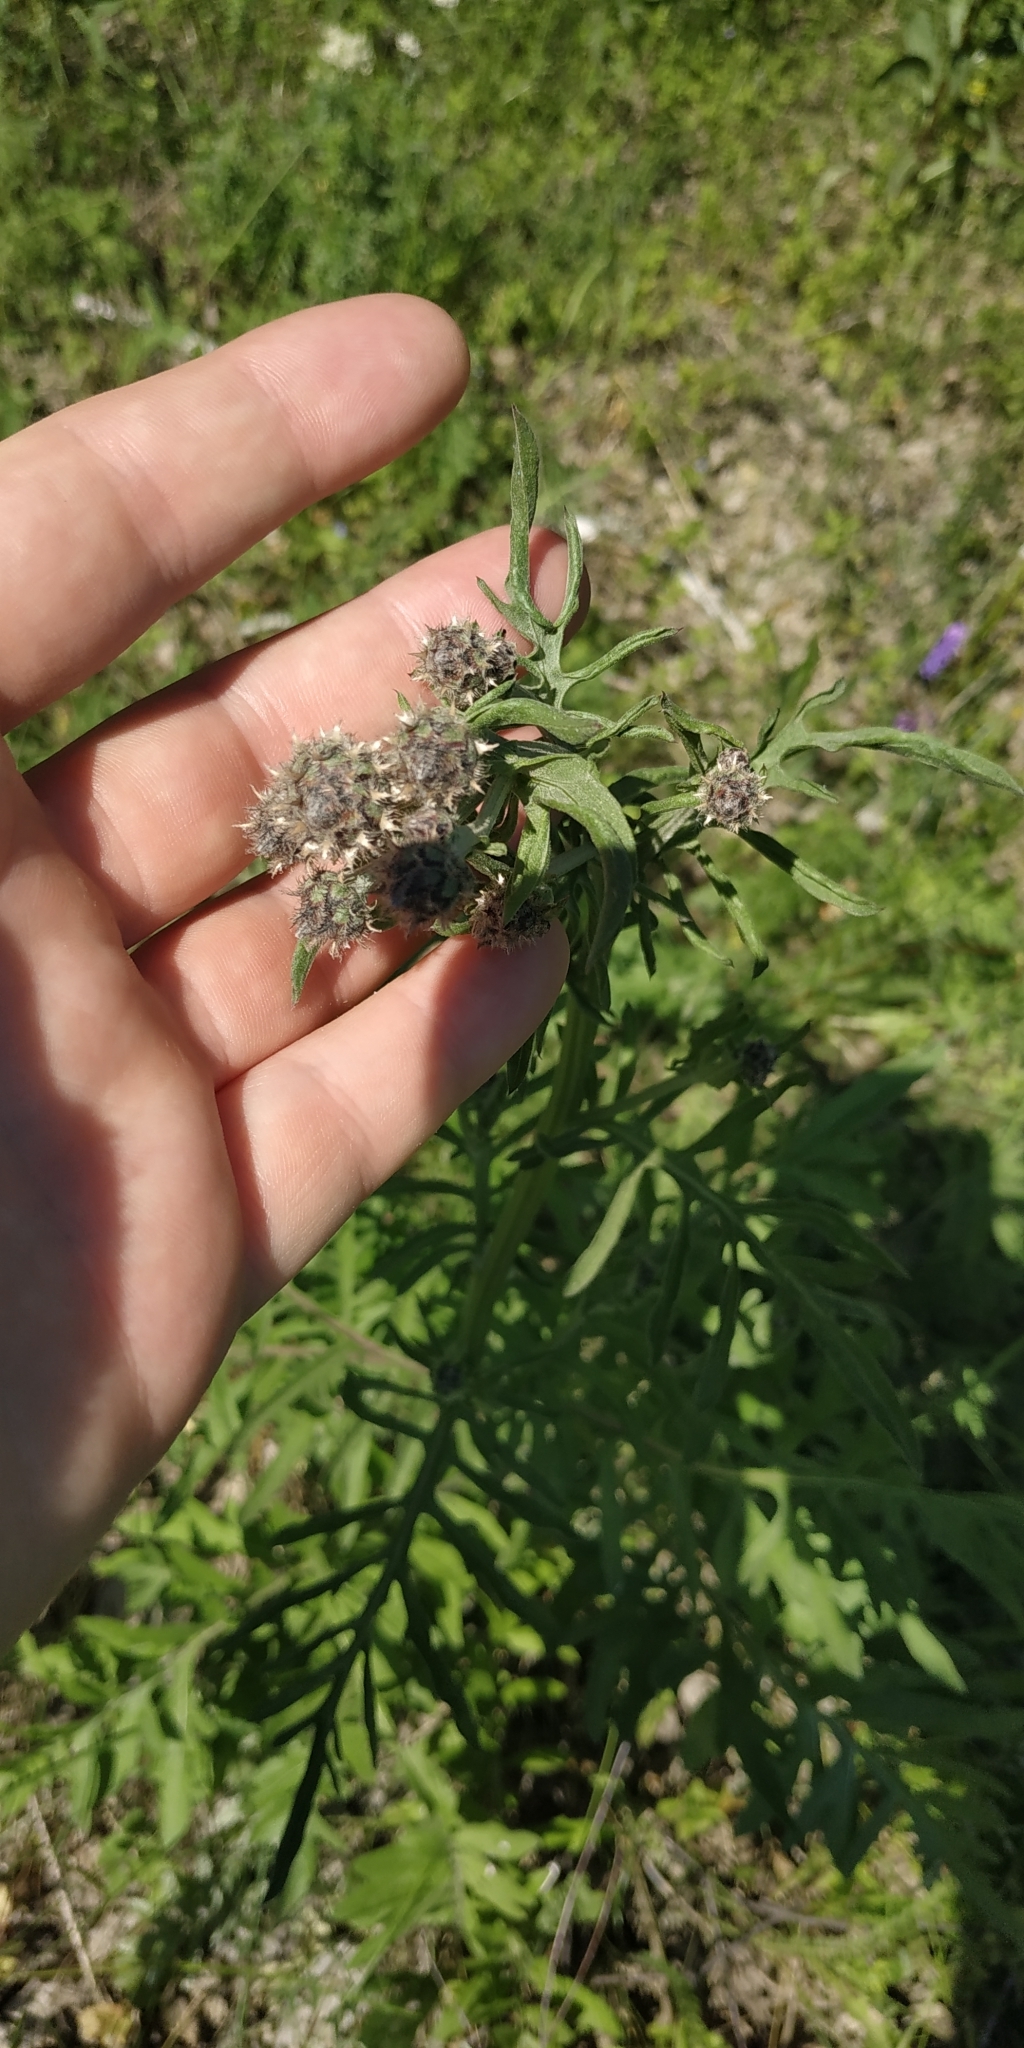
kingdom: Plantae
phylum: Tracheophyta
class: Magnoliopsida
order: Asterales
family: Asteraceae
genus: Centaurea
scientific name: Centaurea scabiosa
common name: Greater knapweed
